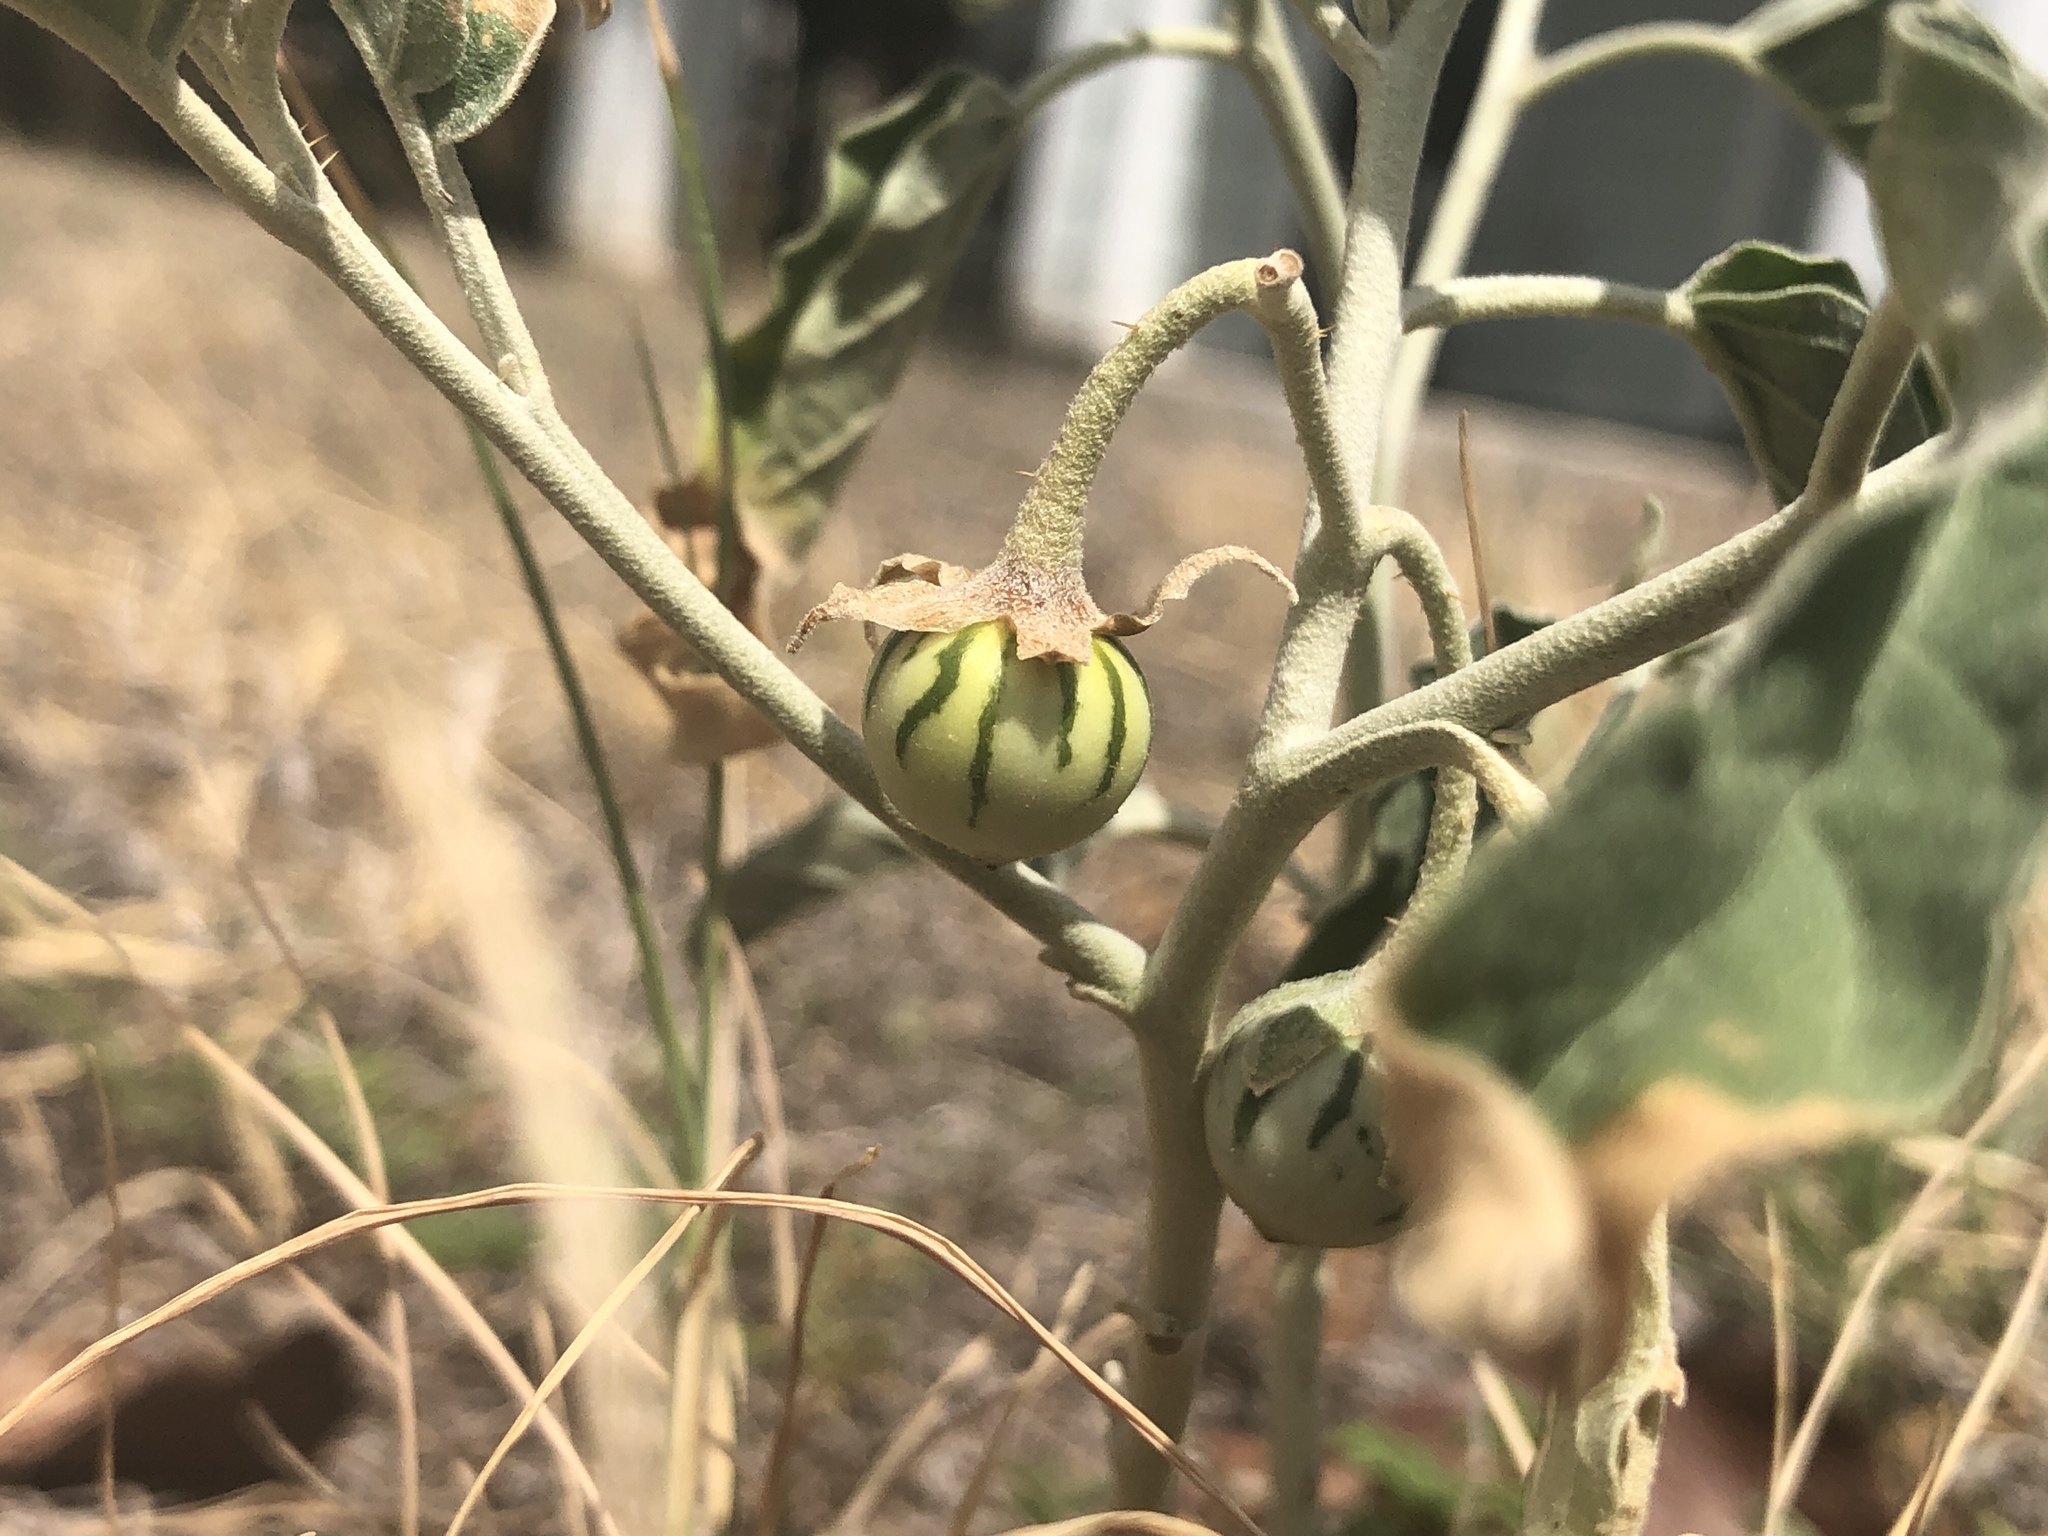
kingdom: Plantae
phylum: Tracheophyta
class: Magnoliopsida
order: Solanales
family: Solanaceae
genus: Solanum
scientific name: Solanum elaeagnifolium
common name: Silverleaf nightshade
